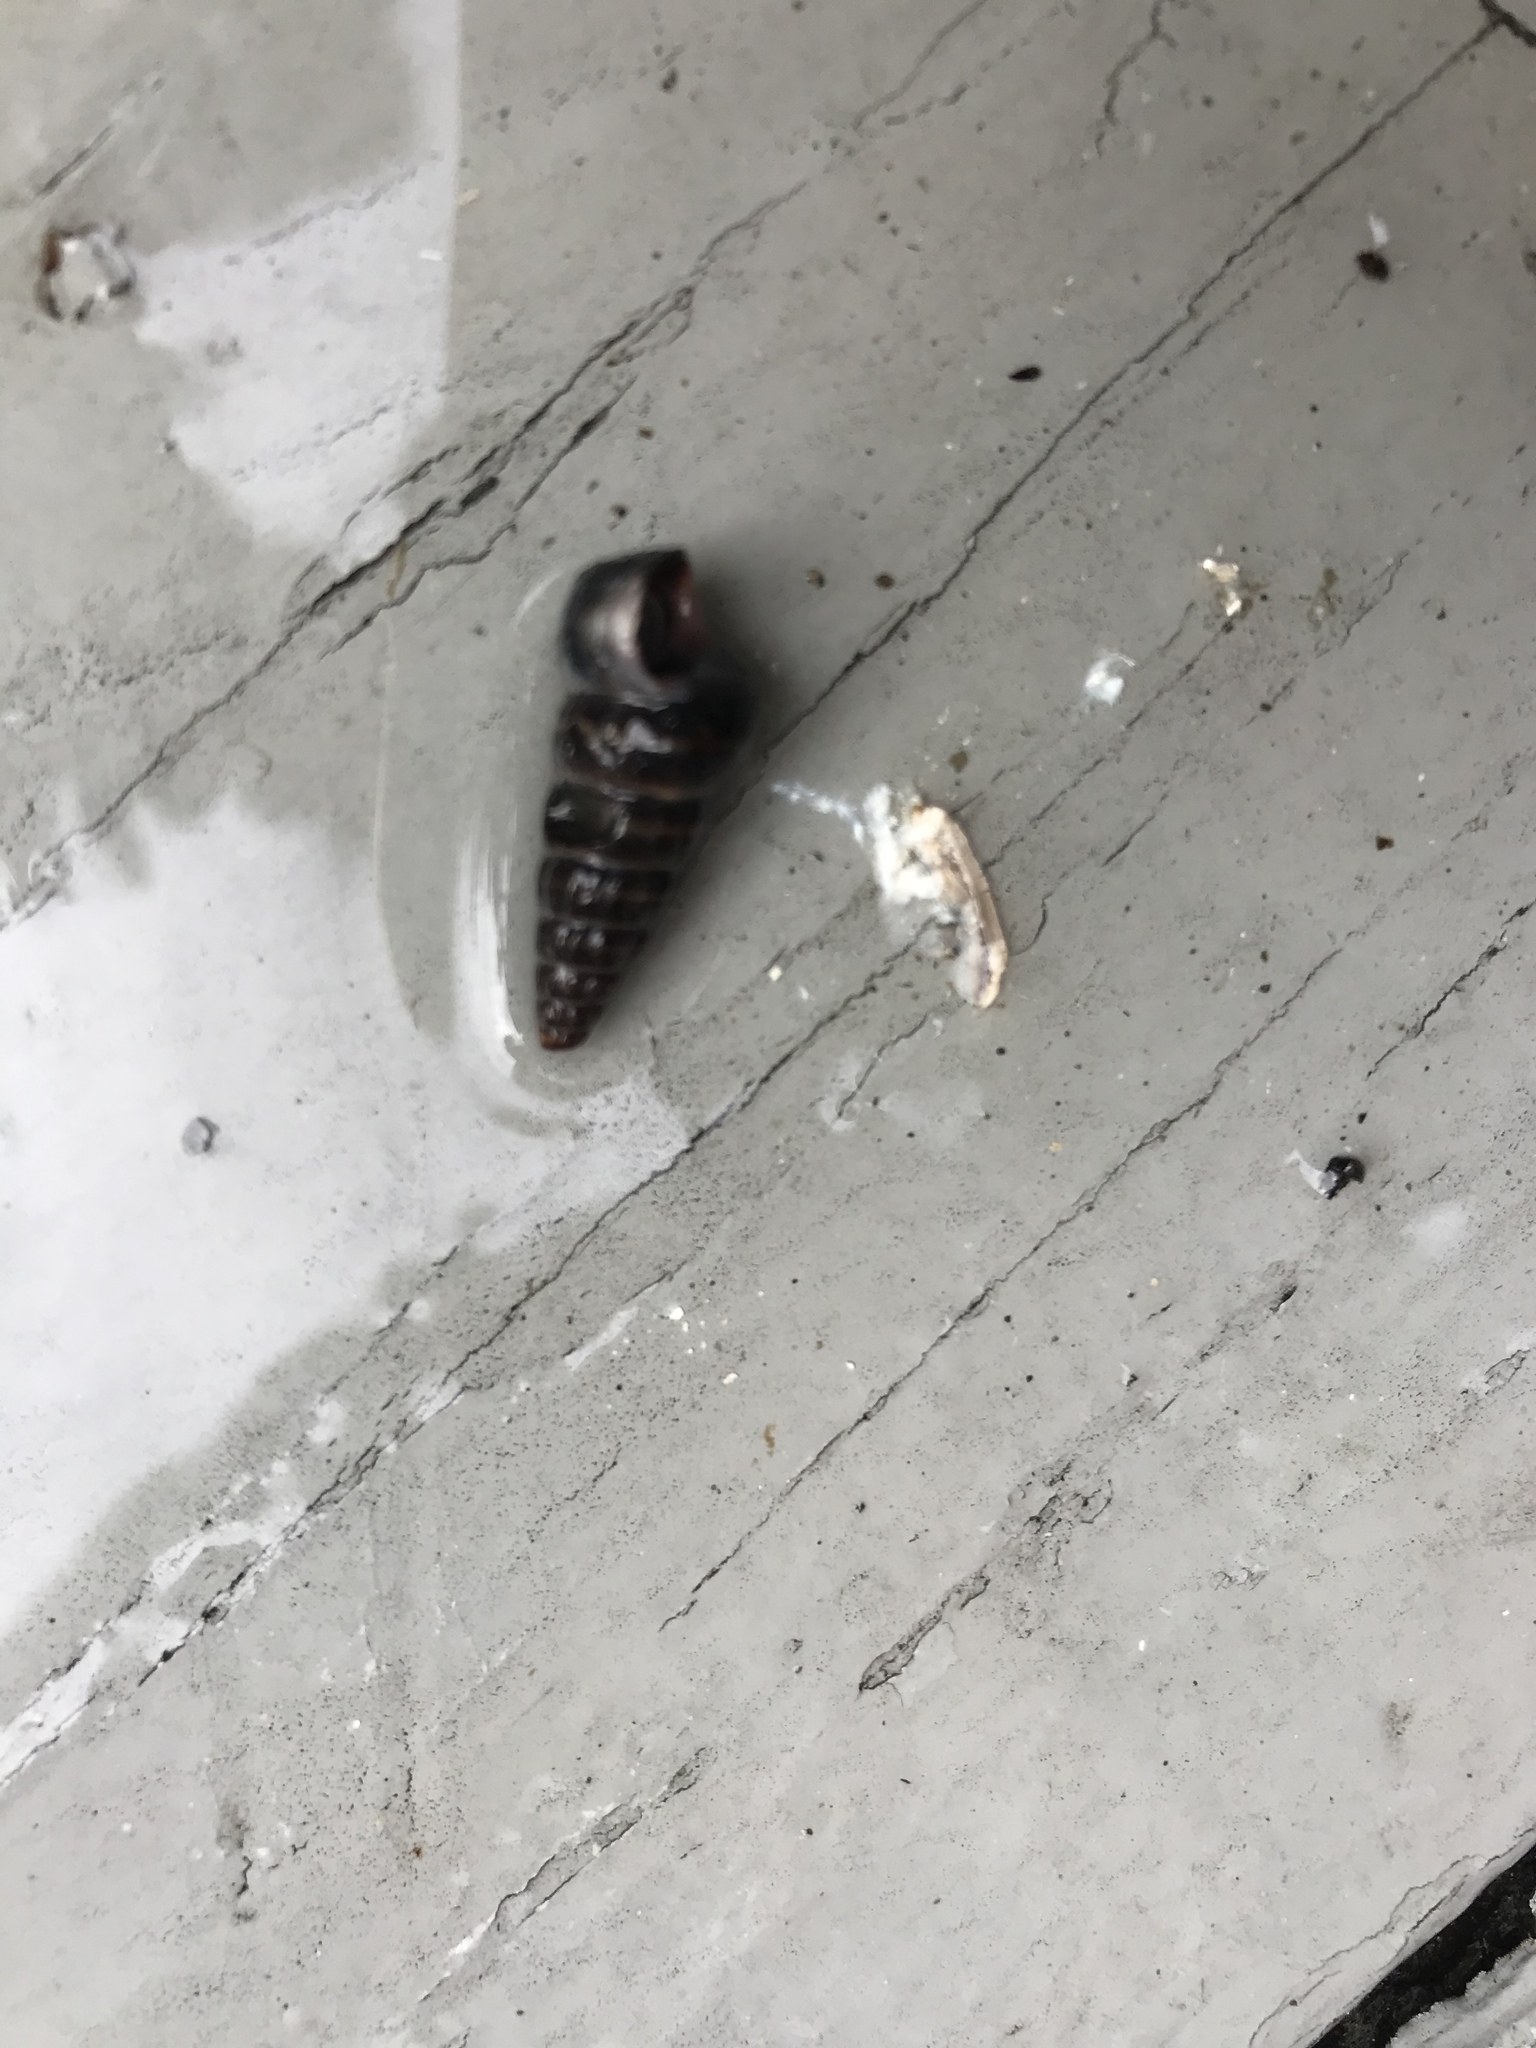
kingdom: Animalia
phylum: Mollusca
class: Gastropoda
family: Potamididae
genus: Cerithideopsis
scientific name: Cerithideopsis californica
